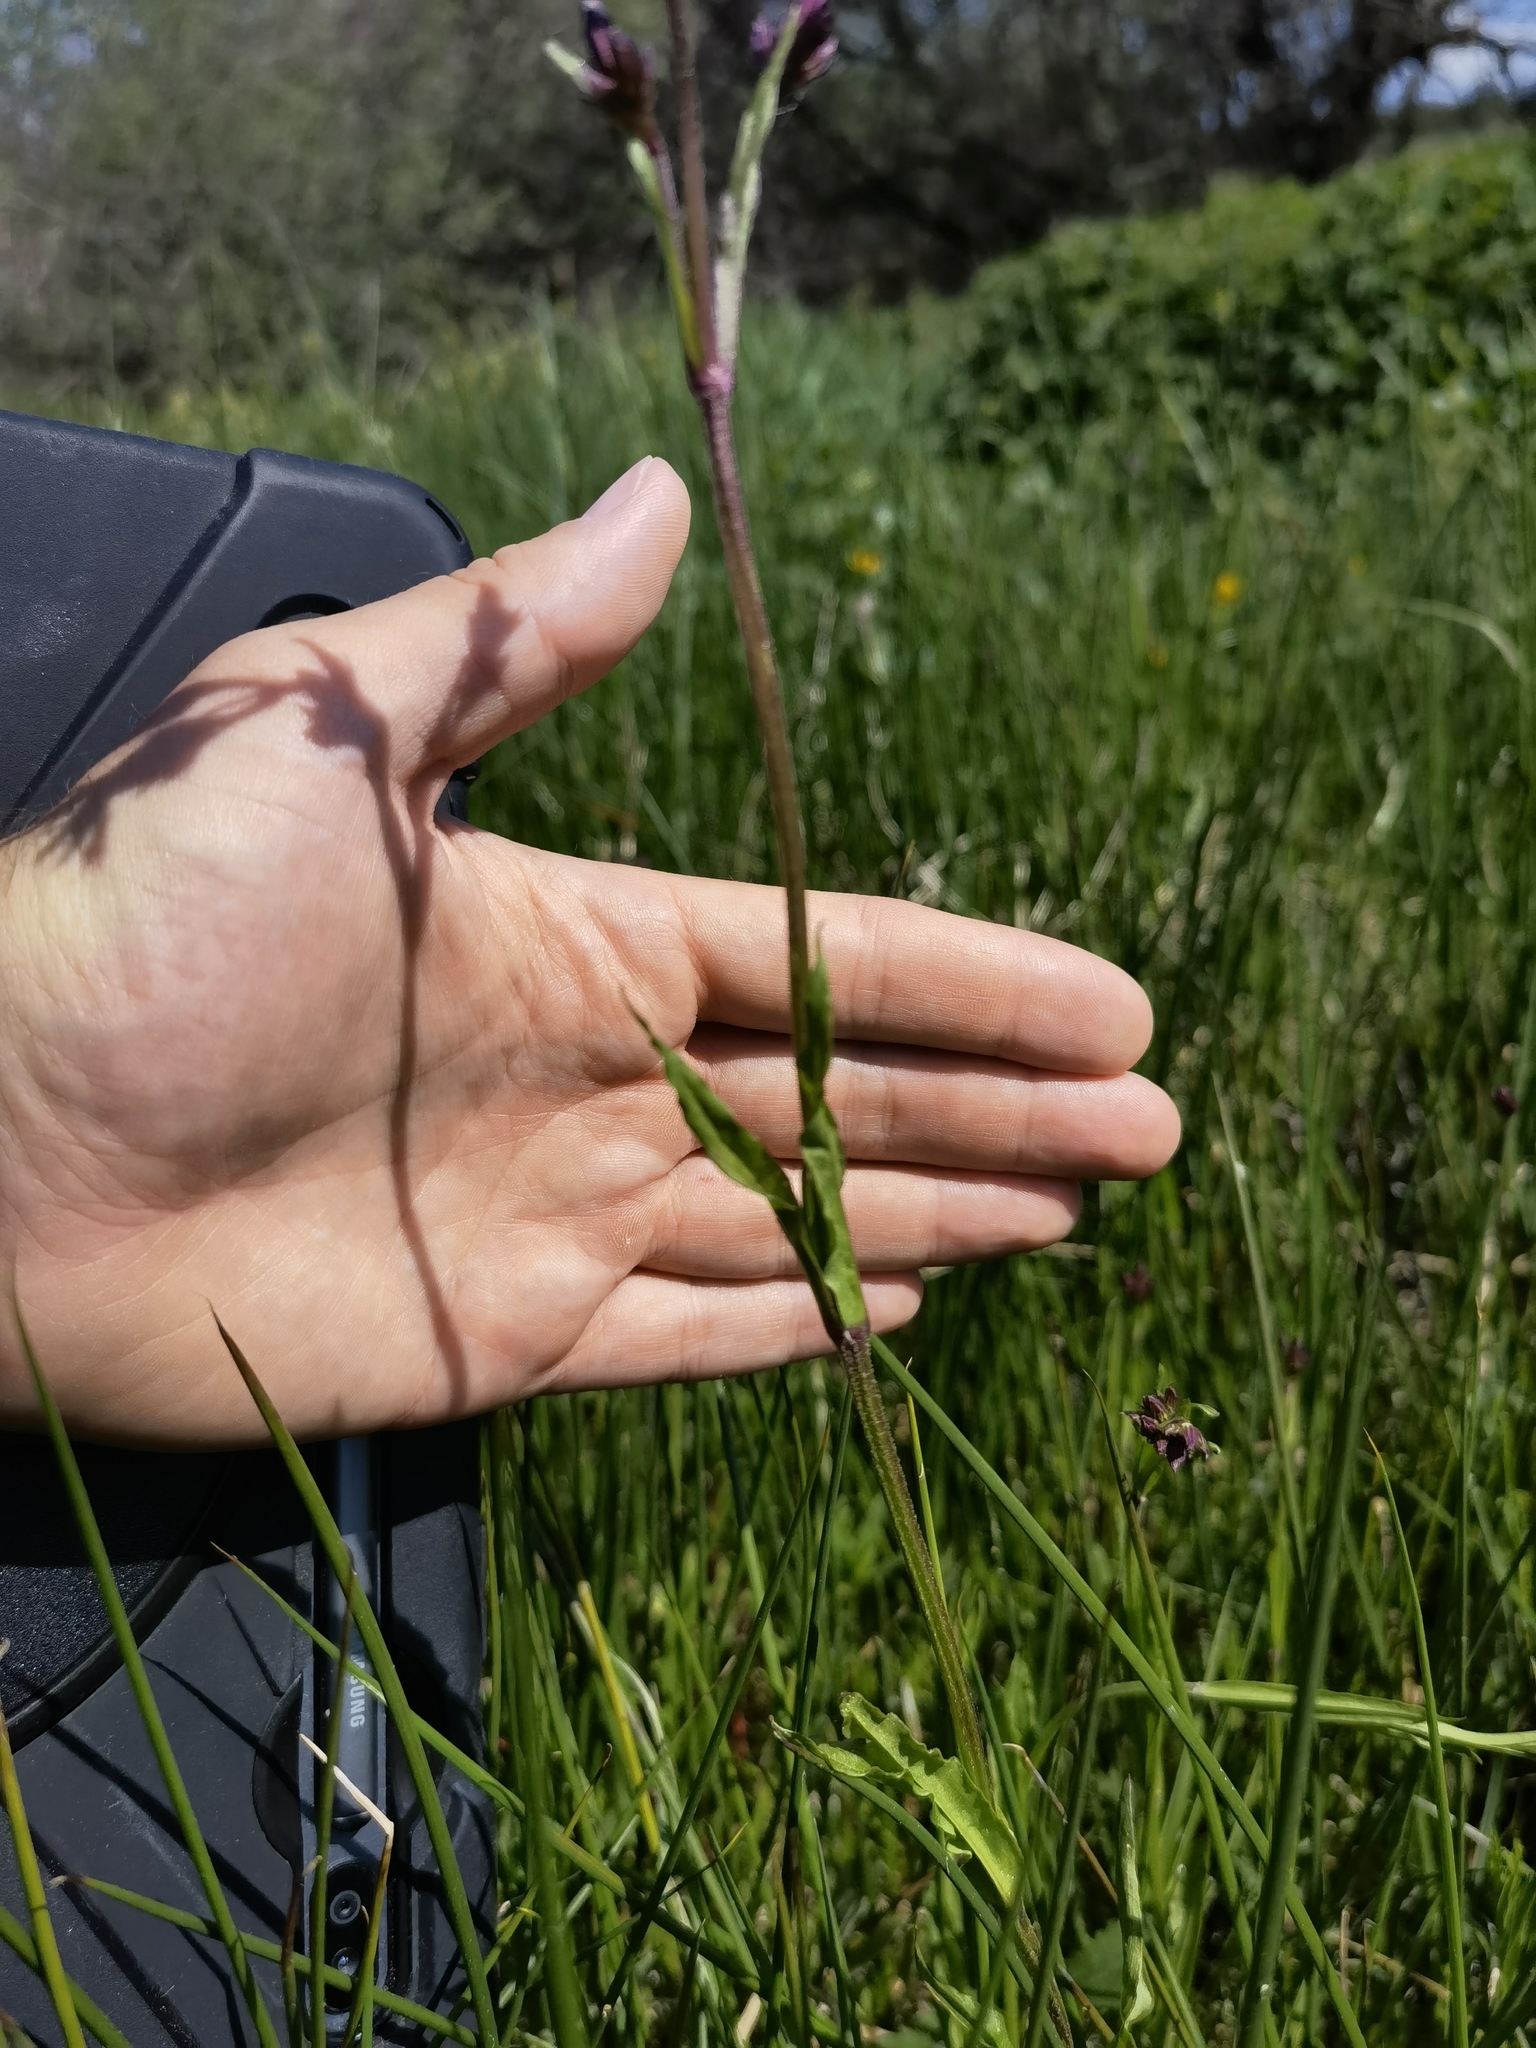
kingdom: Plantae
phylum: Tracheophyta
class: Magnoliopsida
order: Caryophyllales
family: Caryophyllaceae
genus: Silene
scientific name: Silene flos-cuculi
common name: Ragged-robin
